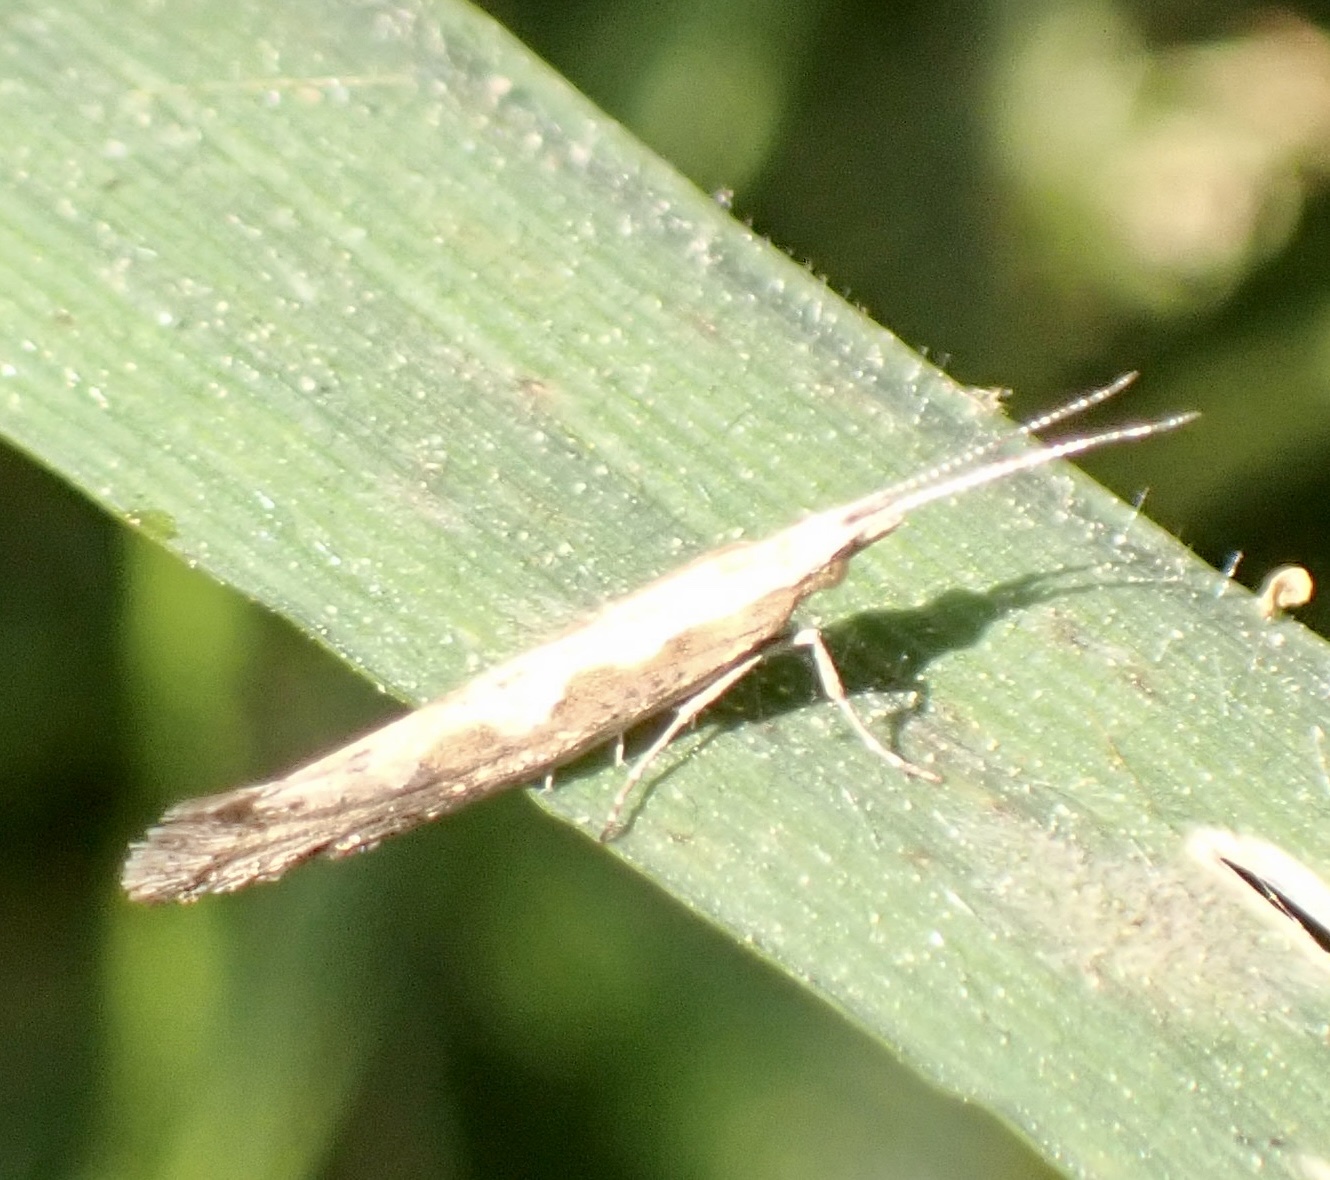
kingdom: Animalia
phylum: Arthropoda
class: Insecta
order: Lepidoptera
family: Plutellidae
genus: Plutella
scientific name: Plutella xylostella
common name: Diamond-back moth
